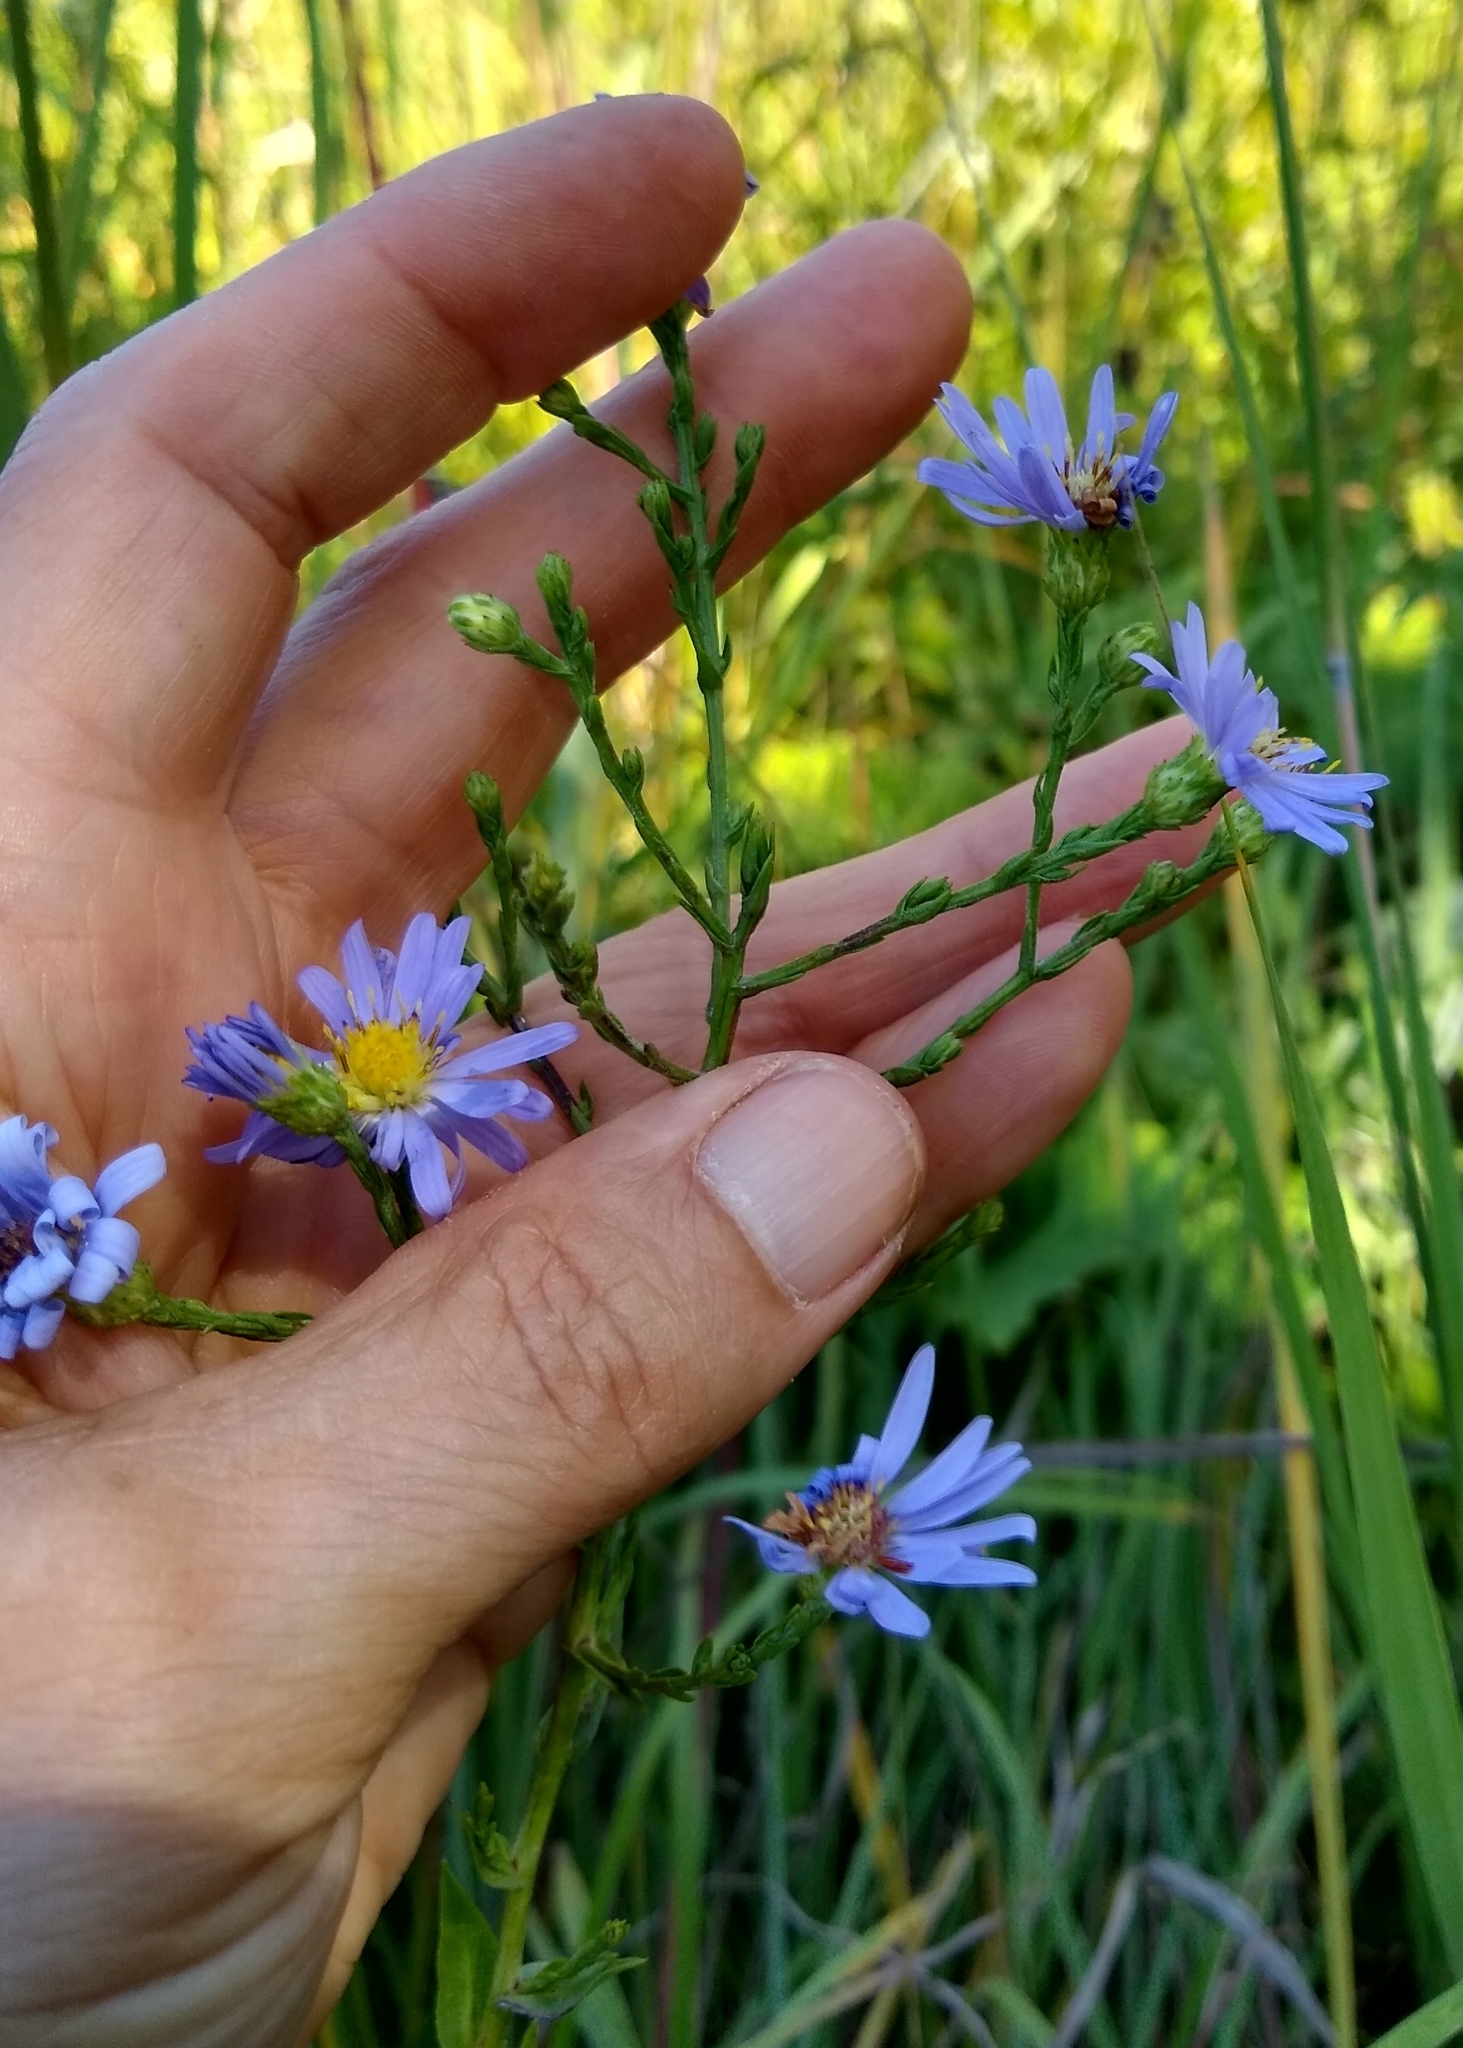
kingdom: Plantae
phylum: Tracheophyta
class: Magnoliopsida
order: Asterales
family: Asteraceae
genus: Symphyotrichum
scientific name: Symphyotrichum laeve
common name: Glaucous aster
